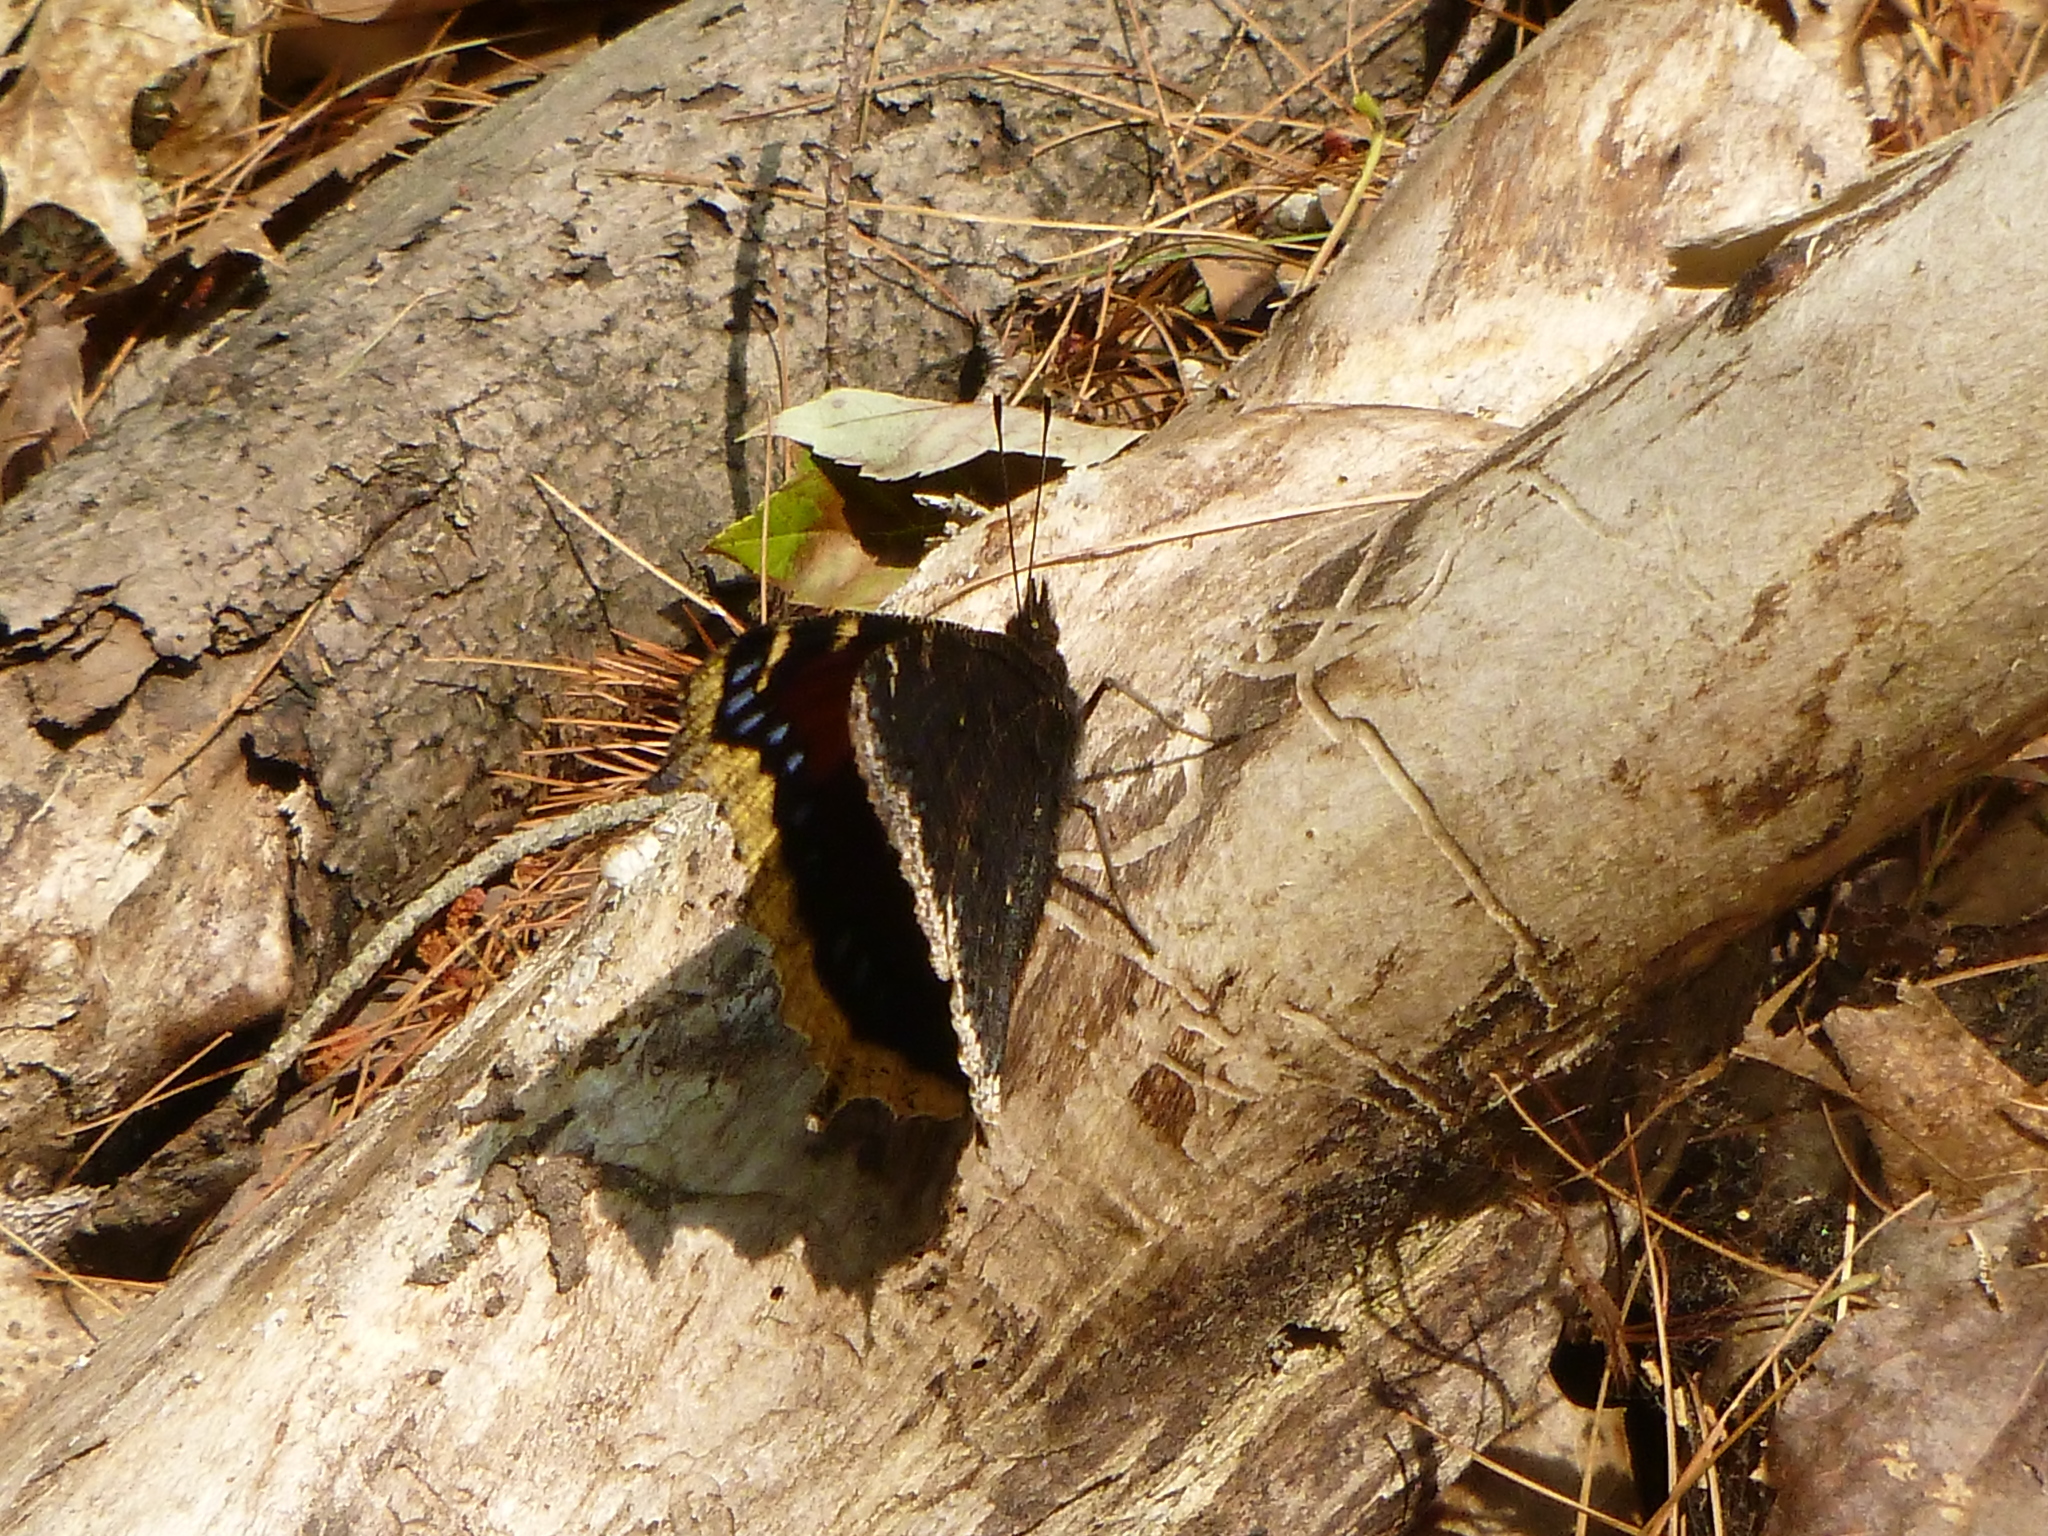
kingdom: Animalia
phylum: Arthropoda
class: Insecta
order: Lepidoptera
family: Nymphalidae
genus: Nymphalis
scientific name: Nymphalis antiopa
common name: Camberwell beauty
